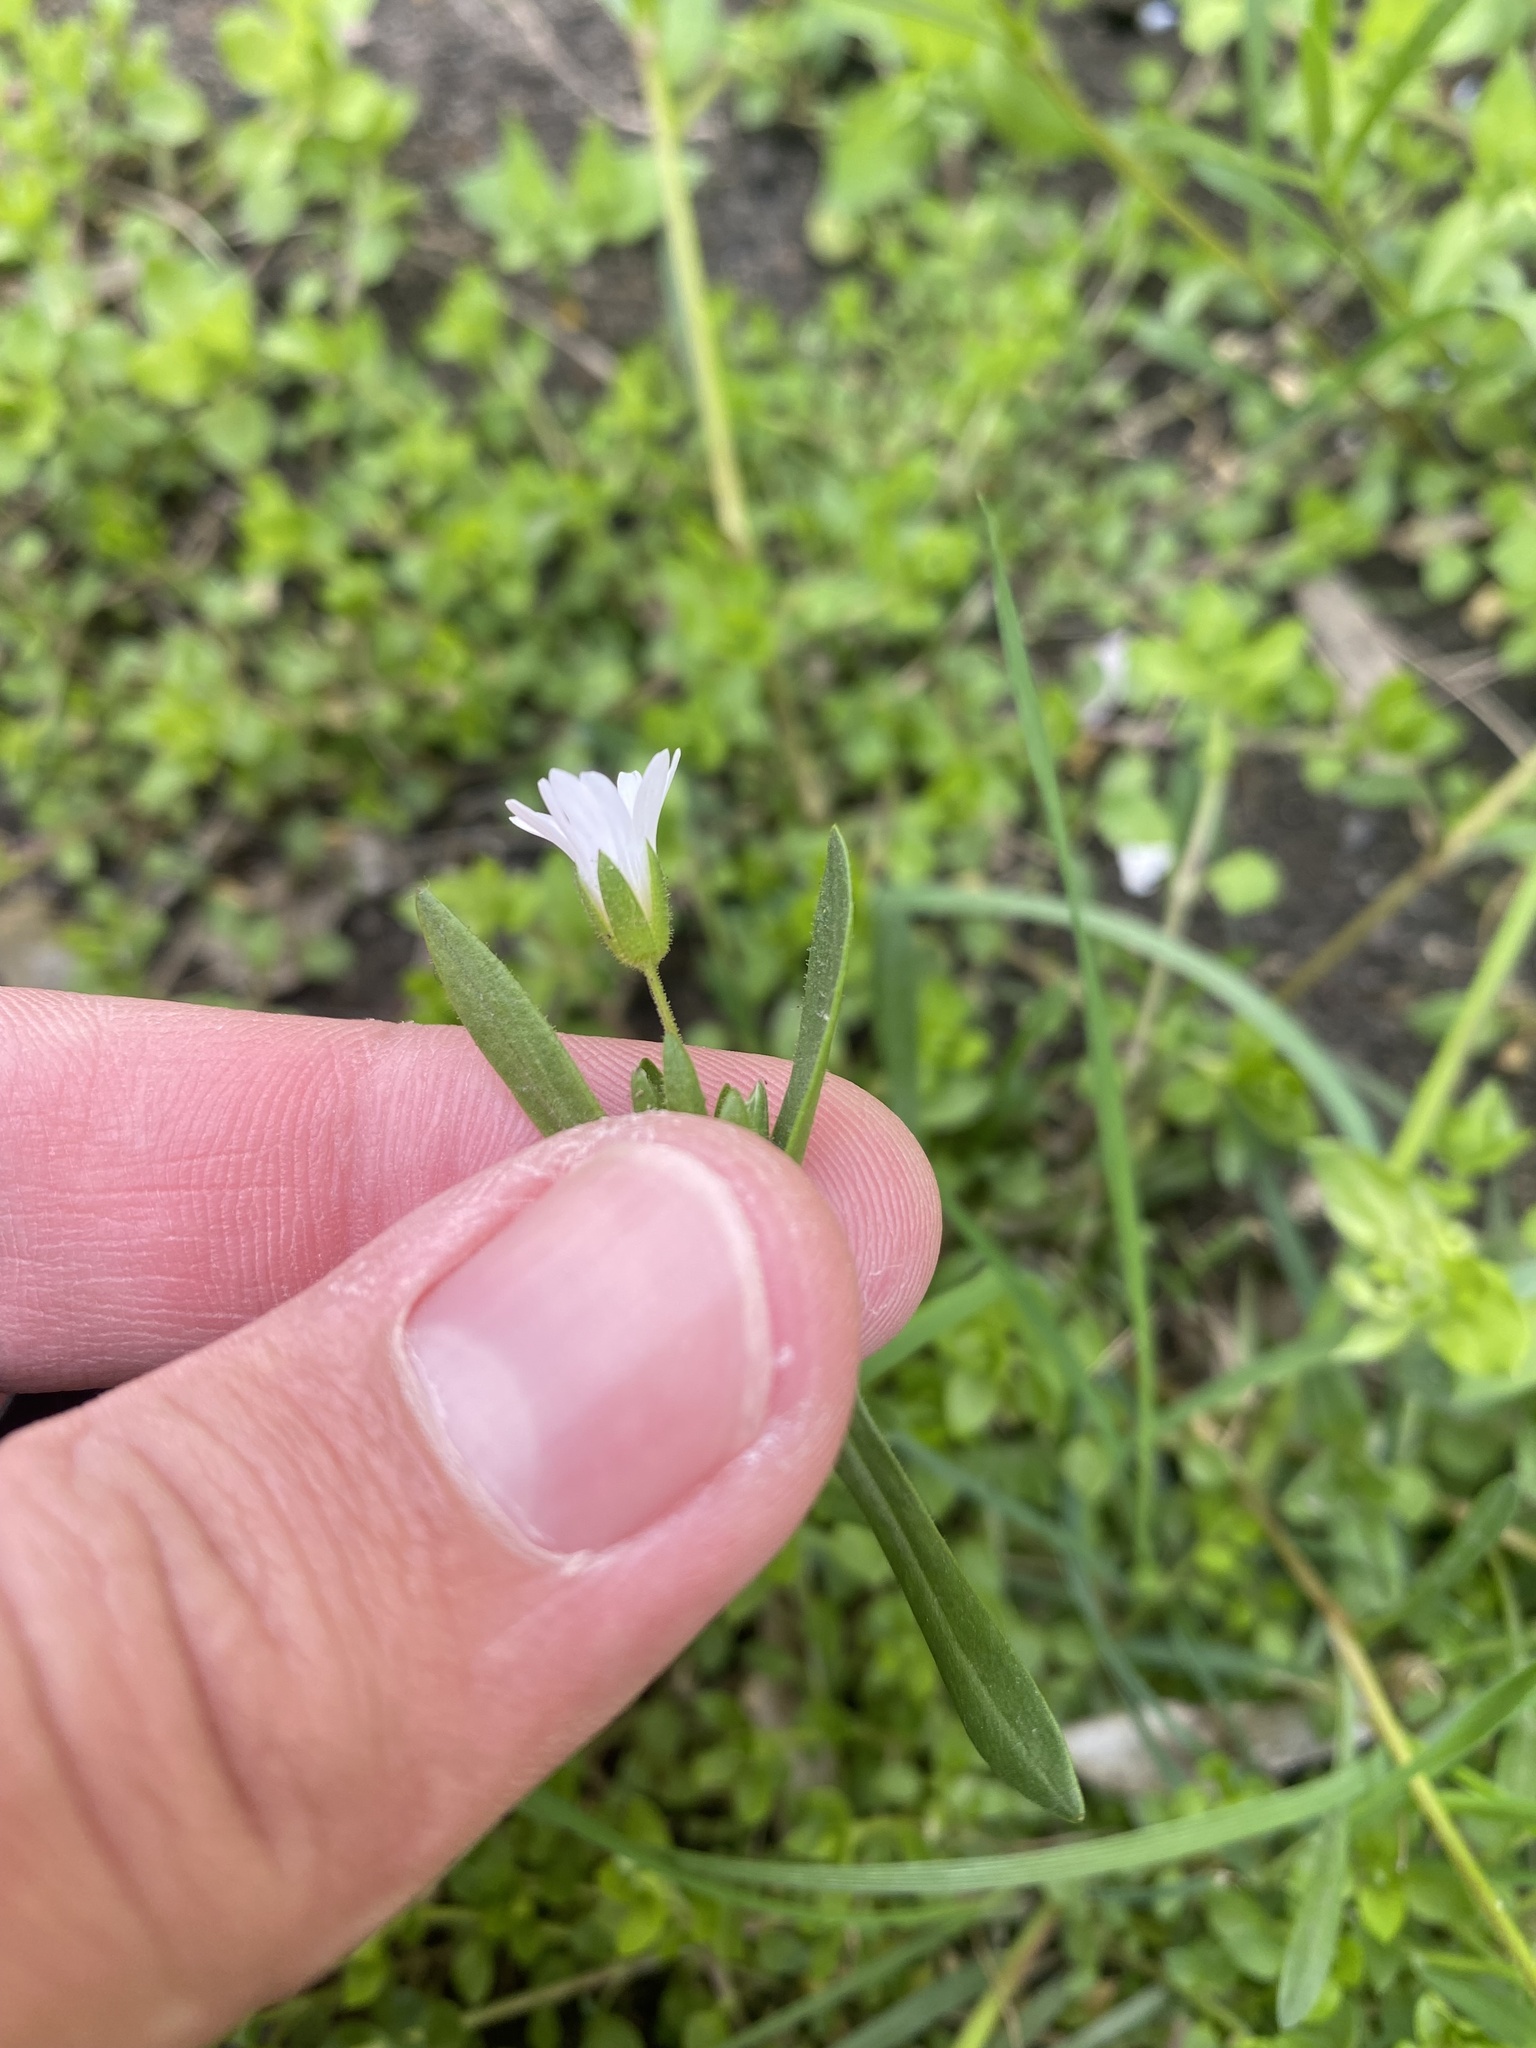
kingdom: Plantae
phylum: Tracheophyta
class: Magnoliopsida
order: Caryophyllales
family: Caryophyllaceae
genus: Dichodon
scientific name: Dichodon viscidum
